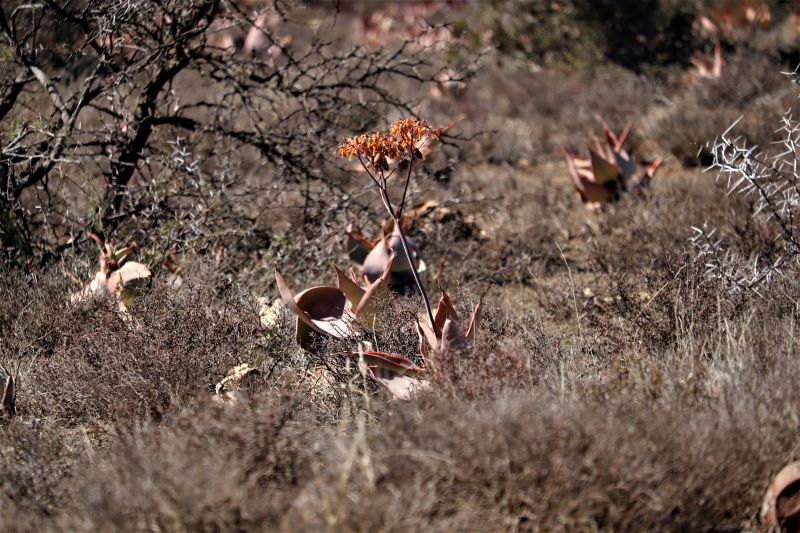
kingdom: Plantae
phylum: Tracheophyta
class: Liliopsida
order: Asparagales
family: Asphodelaceae
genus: Aloe
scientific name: Aloe striata
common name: Coral aloe
